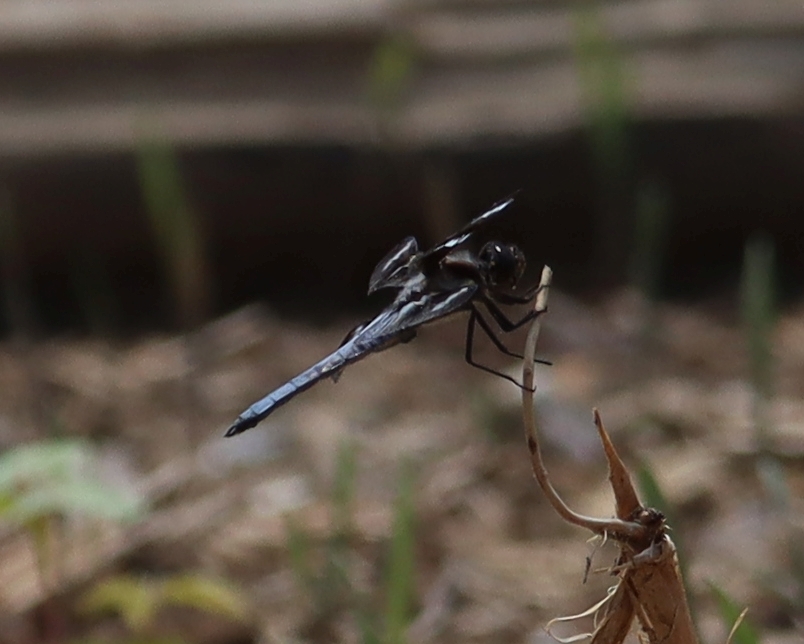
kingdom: Animalia
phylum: Arthropoda
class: Insecta
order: Odonata
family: Libellulidae
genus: Libellula
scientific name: Libellula pulchella
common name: Twelve-spotted skimmer
